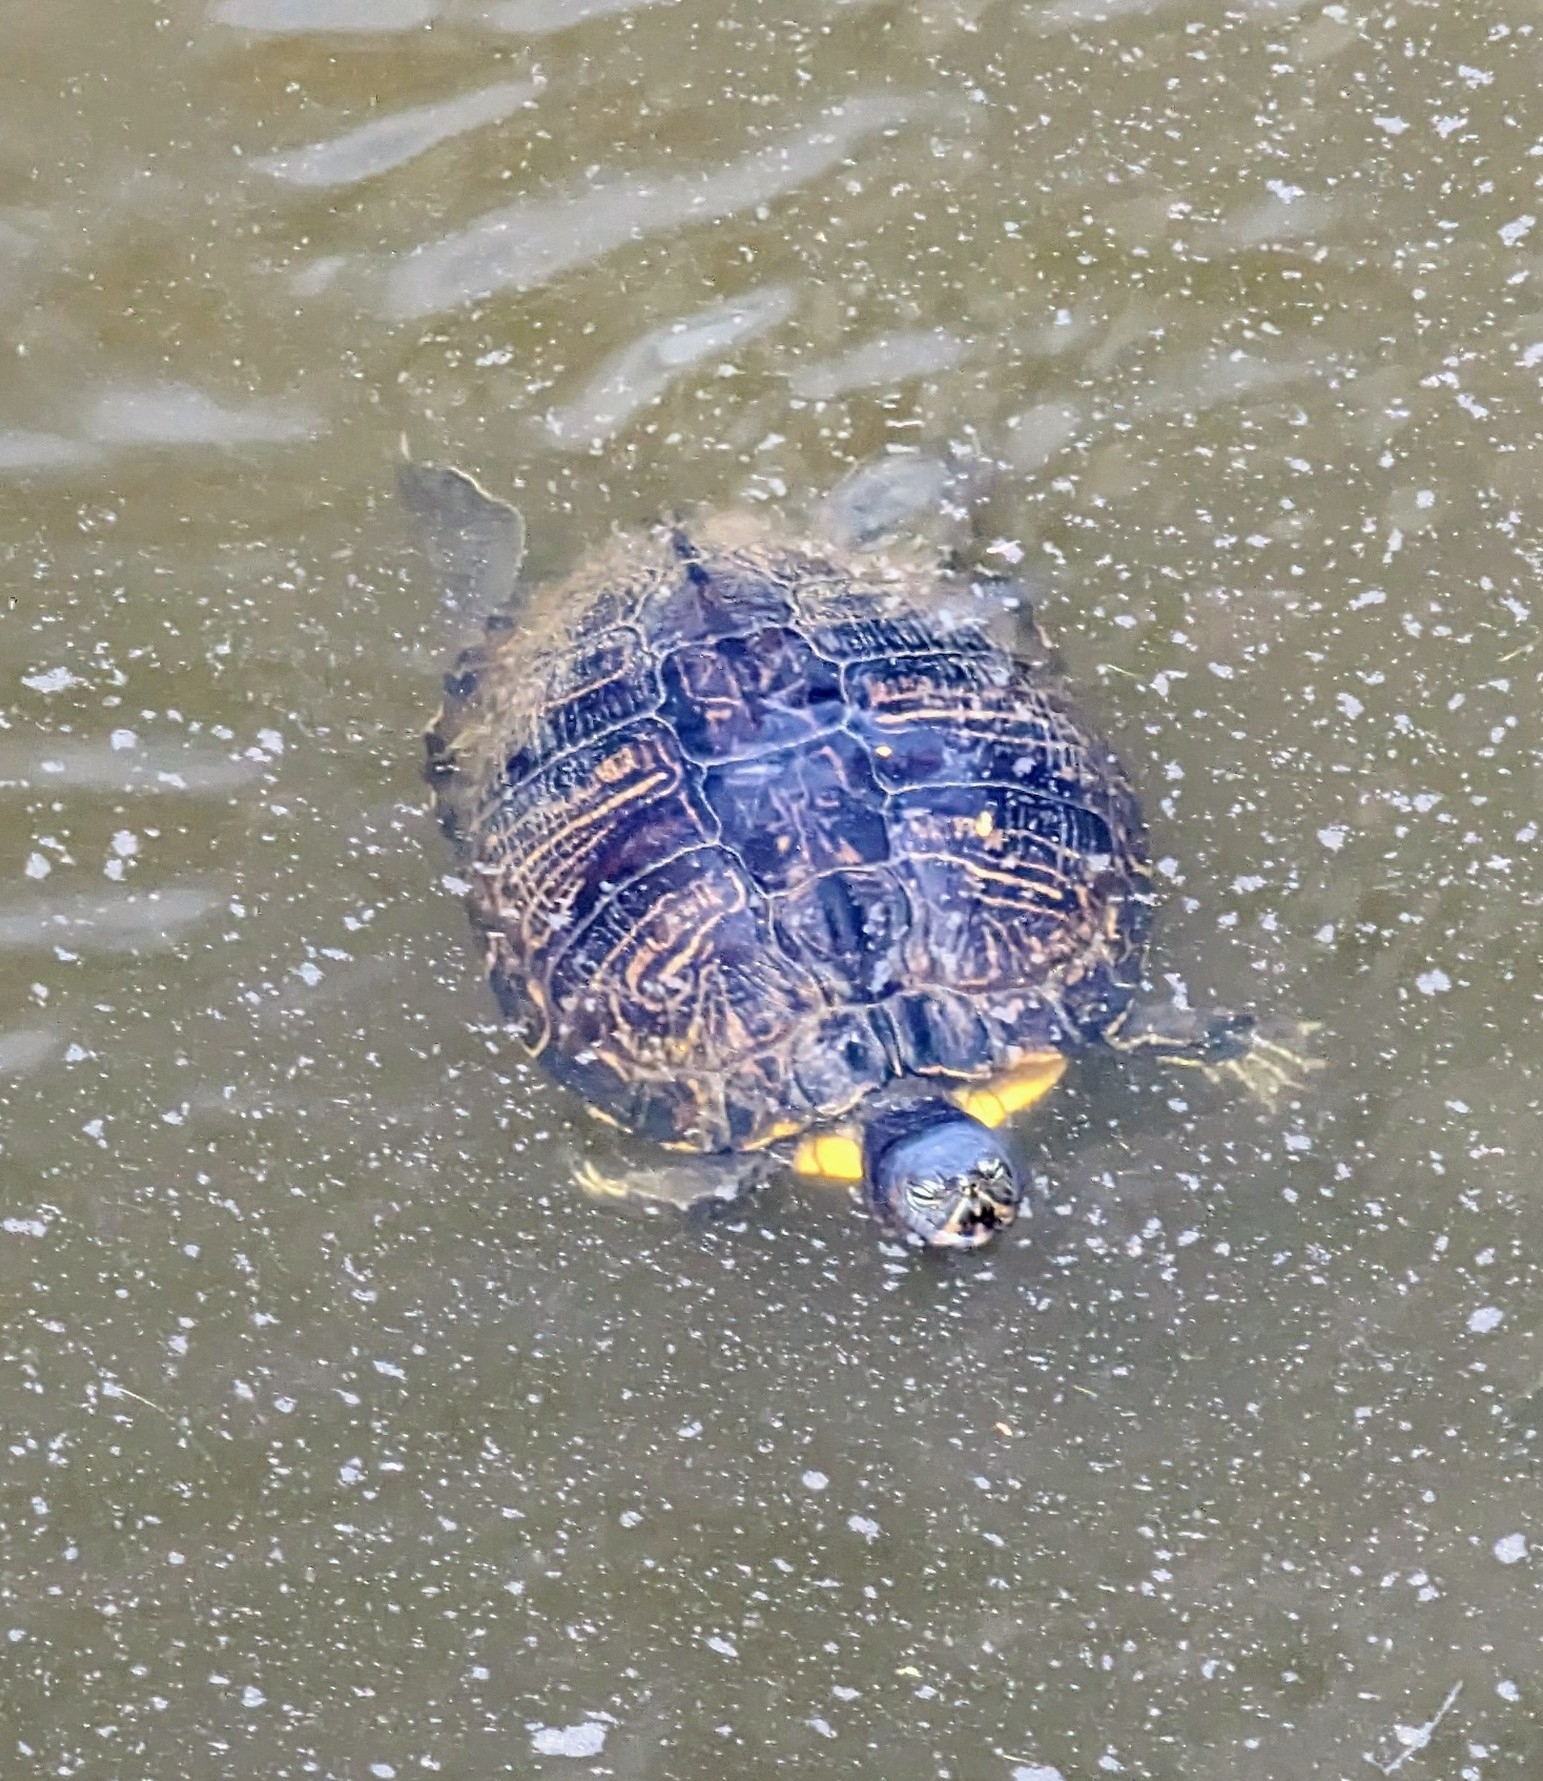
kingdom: Animalia
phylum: Chordata
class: Testudines
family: Emydidae
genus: Trachemys
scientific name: Trachemys scripta
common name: Slider
